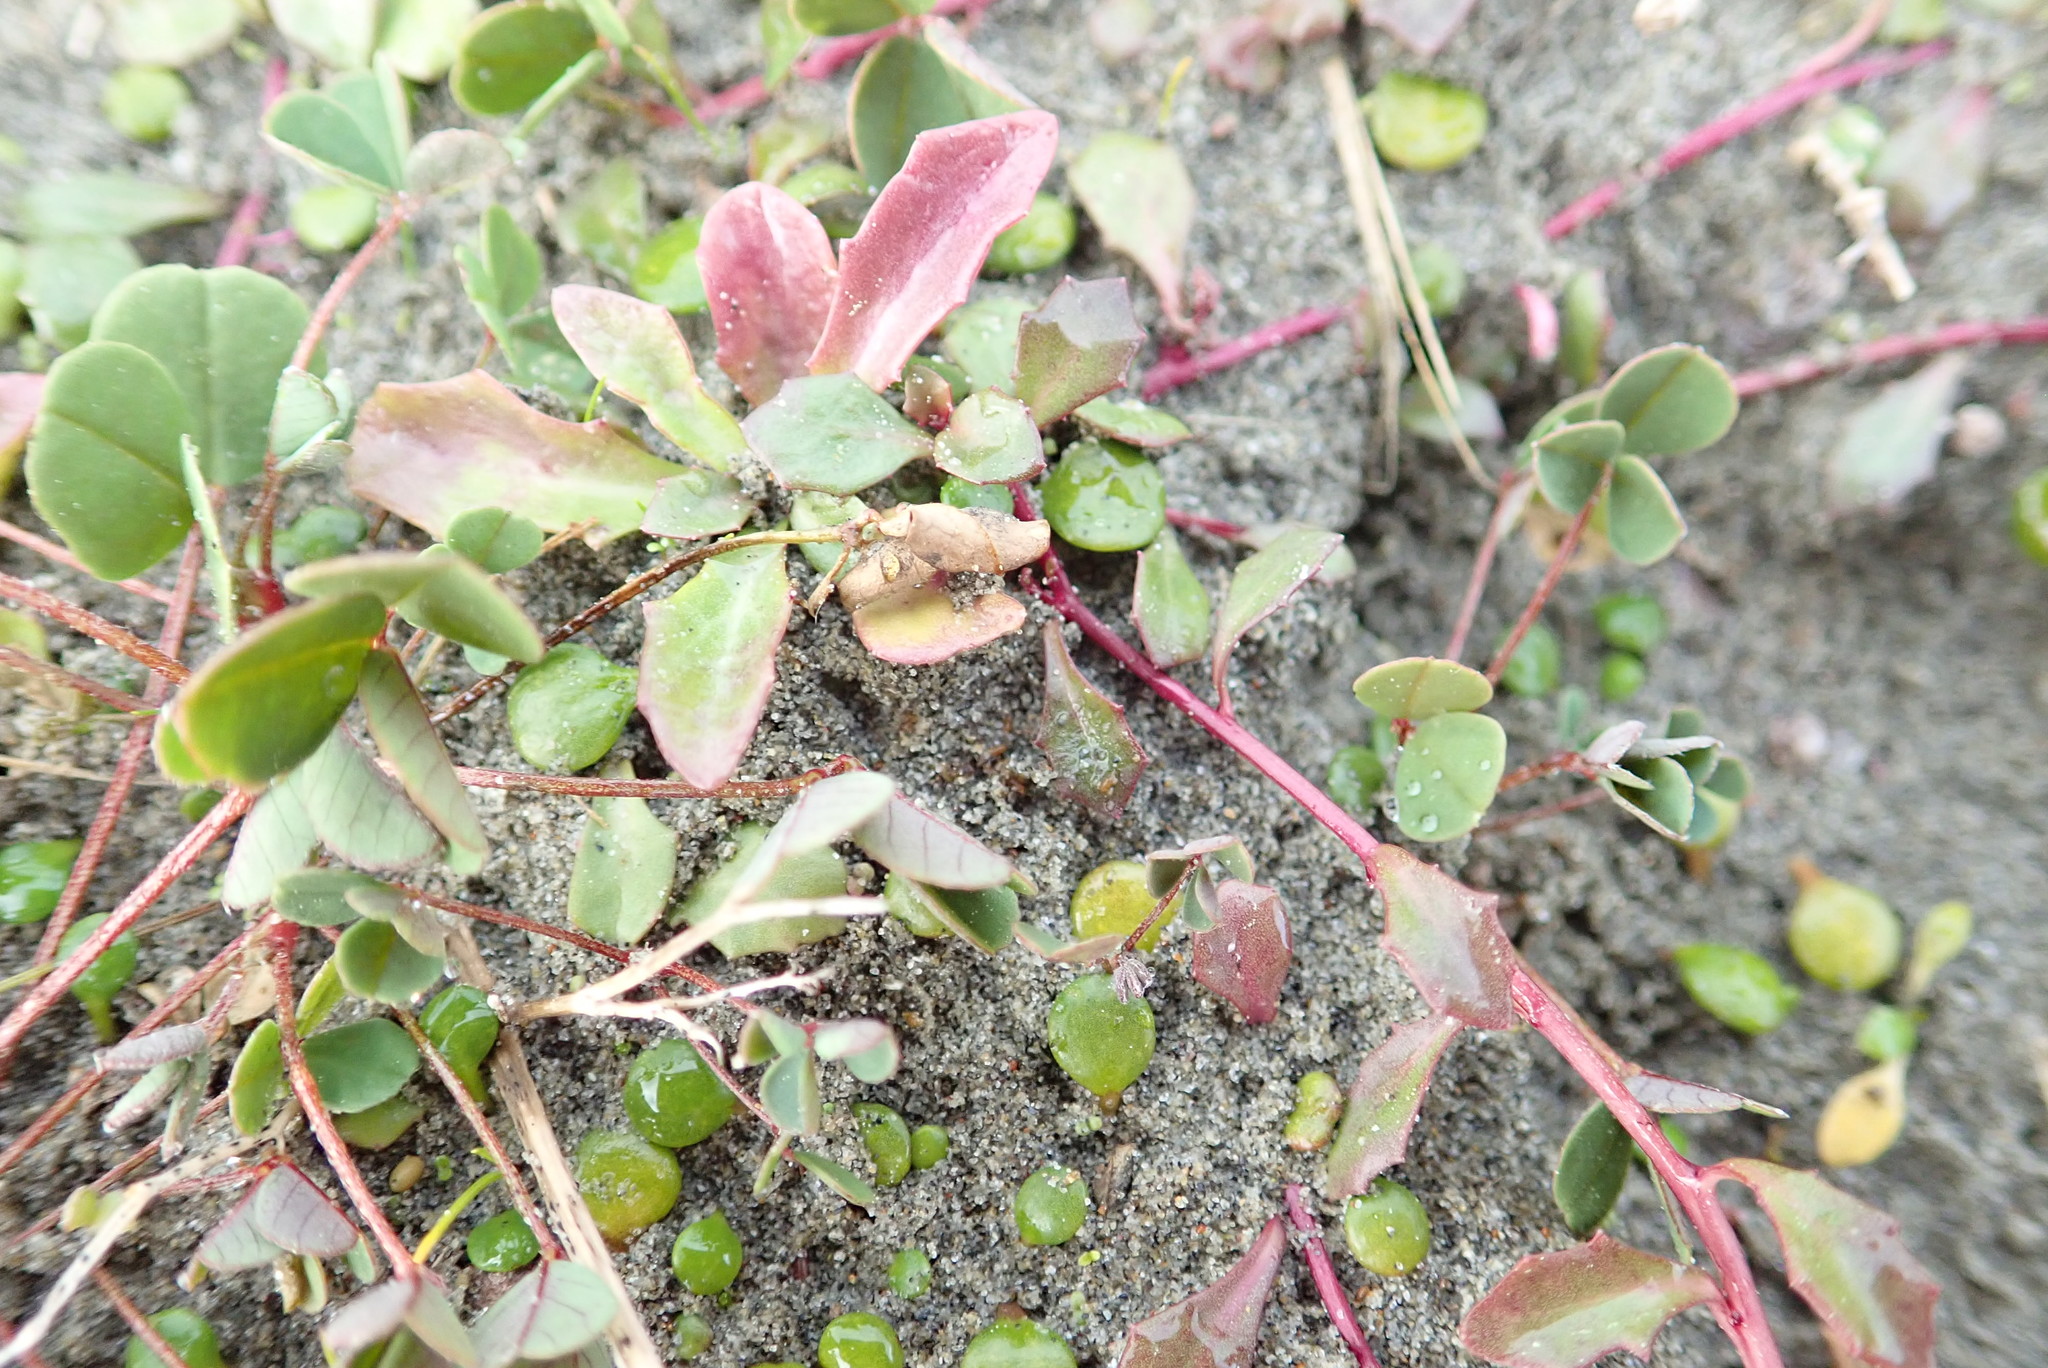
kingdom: Plantae
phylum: Tracheophyta
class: Magnoliopsida
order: Asterales
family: Campanulaceae
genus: Lobelia
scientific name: Lobelia anceps
